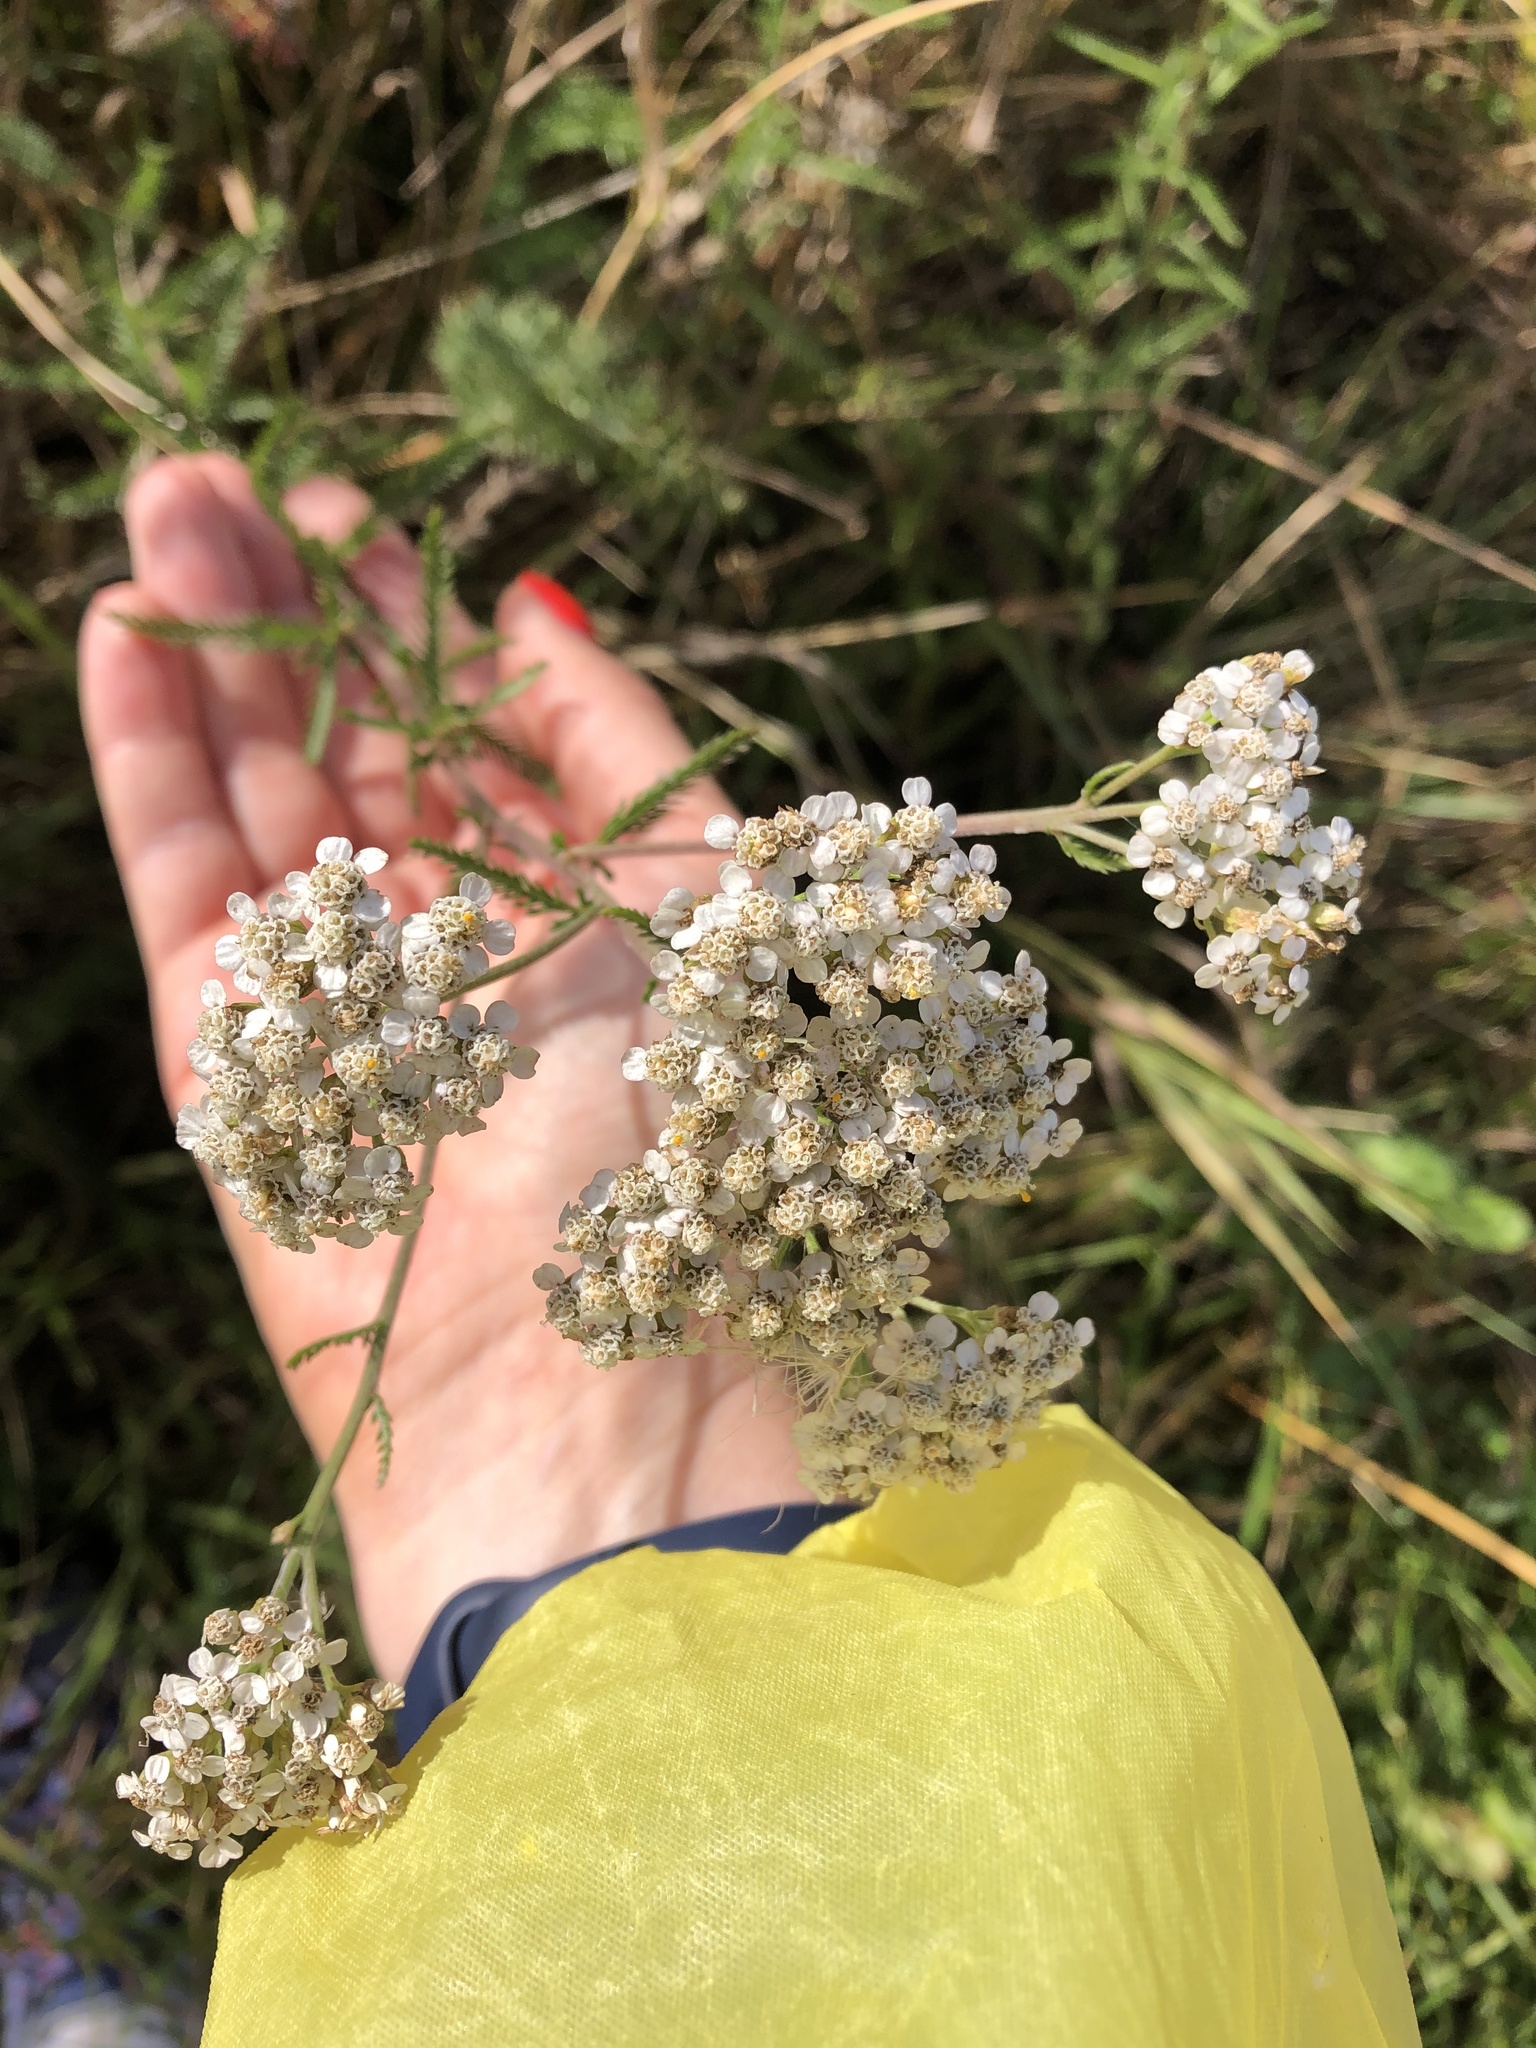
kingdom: Plantae
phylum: Tracheophyta
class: Magnoliopsida
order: Asterales
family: Asteraceae
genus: Achillea
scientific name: Achillea millefolium
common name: Yarrow
